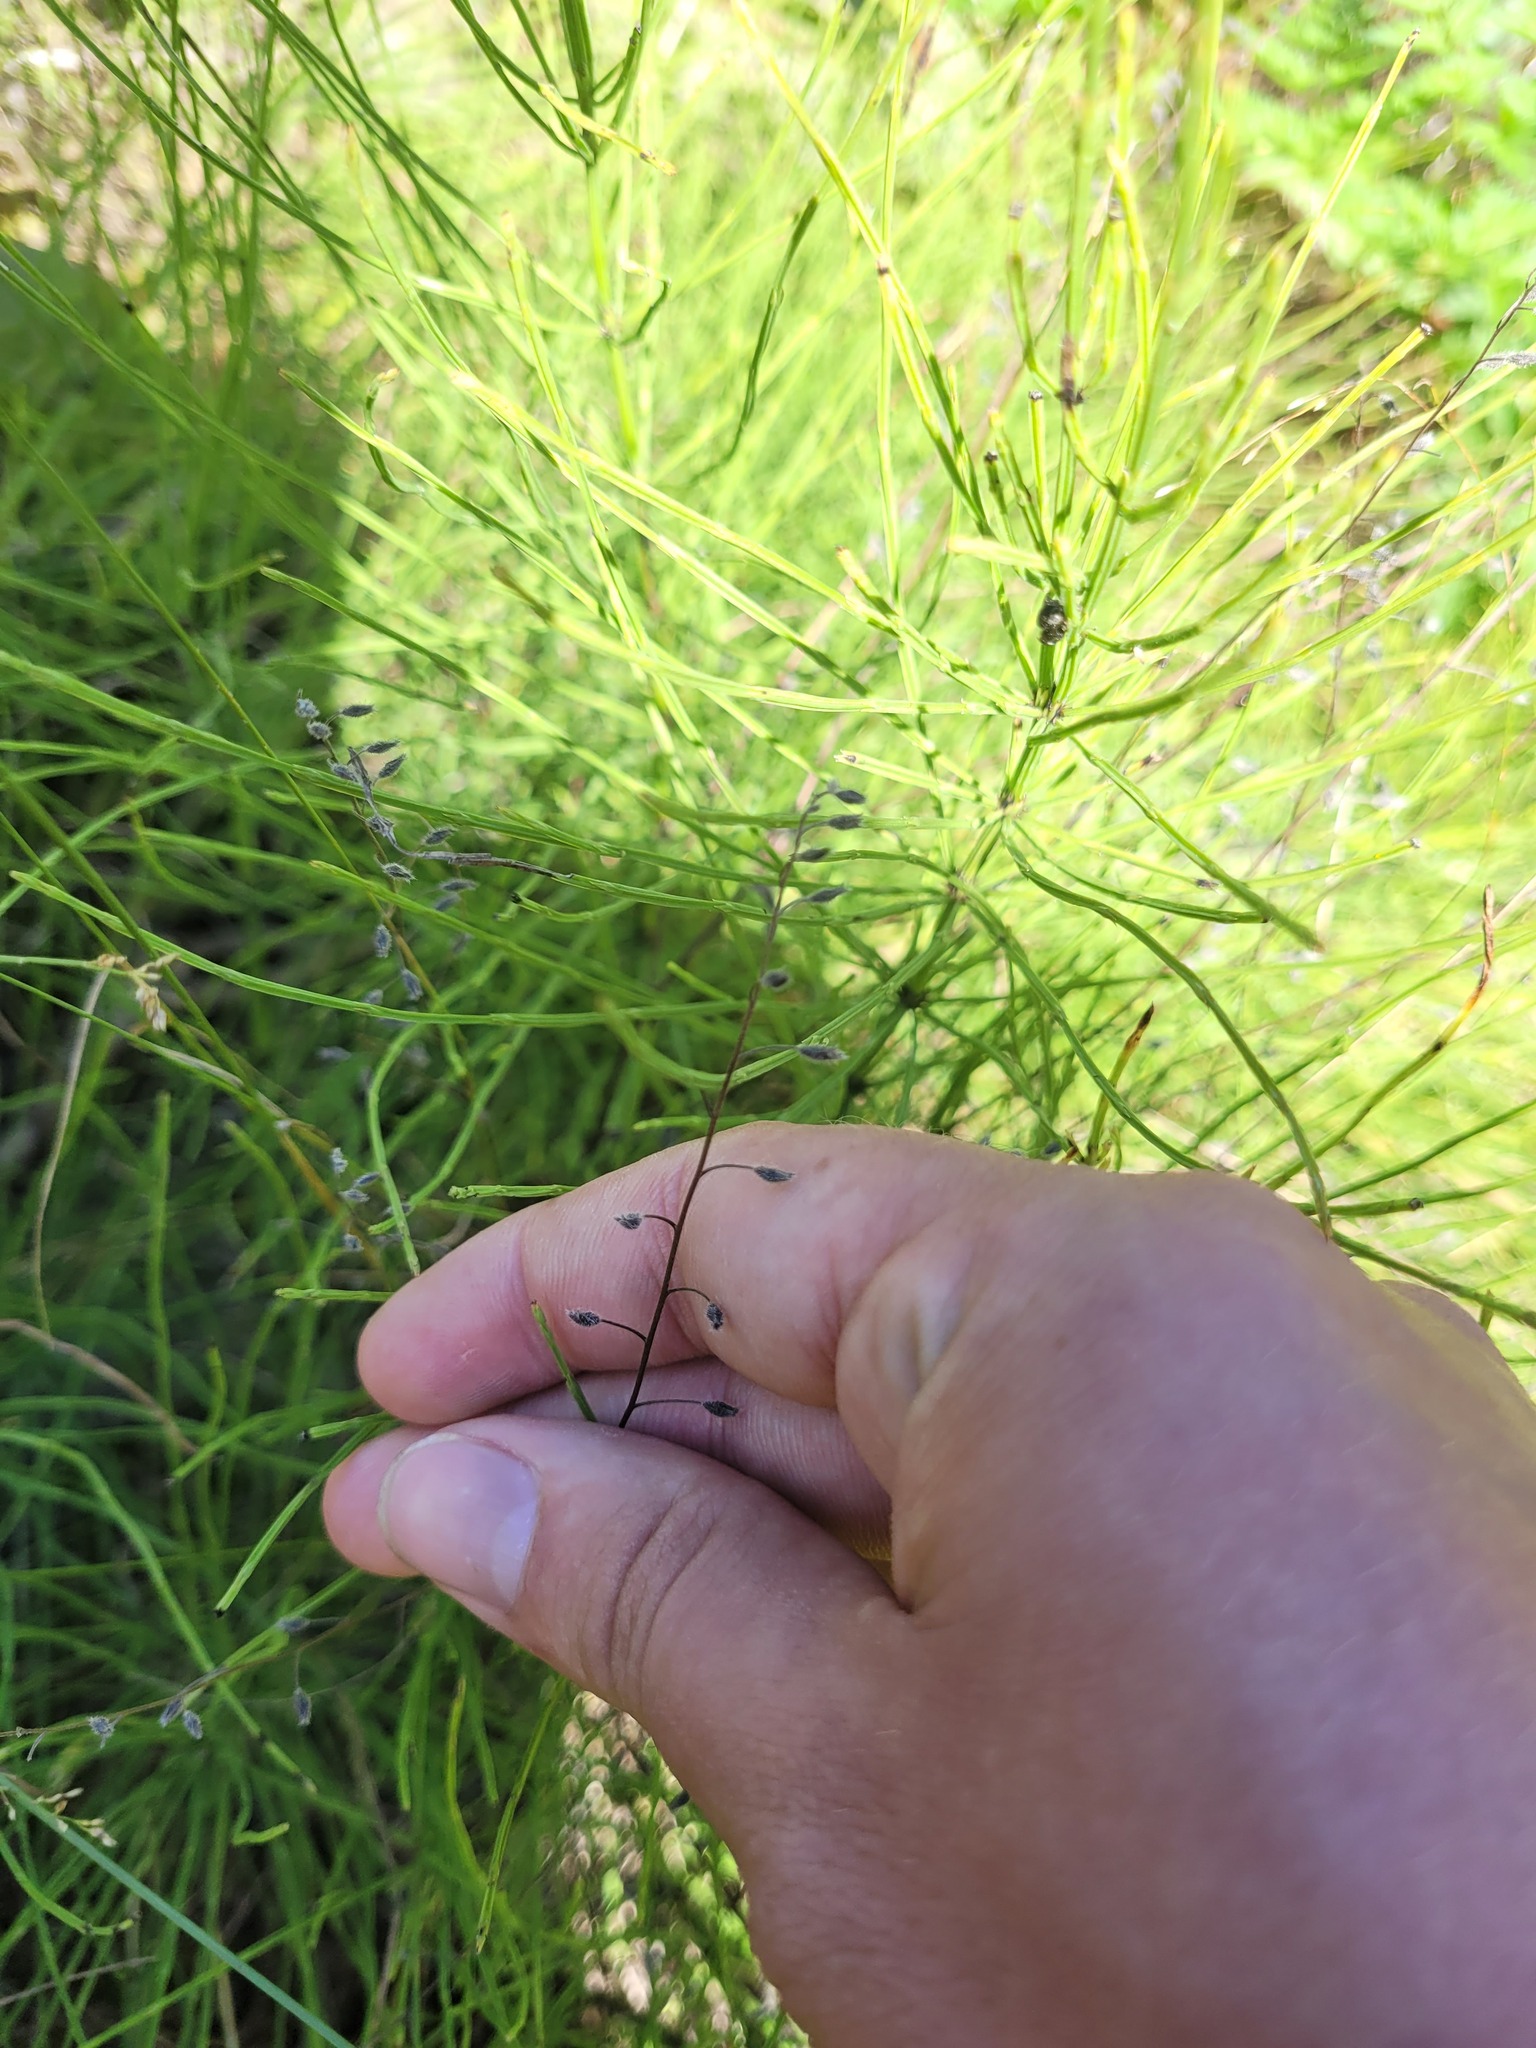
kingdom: Plantae
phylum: Tracheophyta
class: Magnoliopsida
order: Boraginales
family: Boraginaceae
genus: Myosotis
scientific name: Myosotis arvensis
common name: Field forget-me-not
